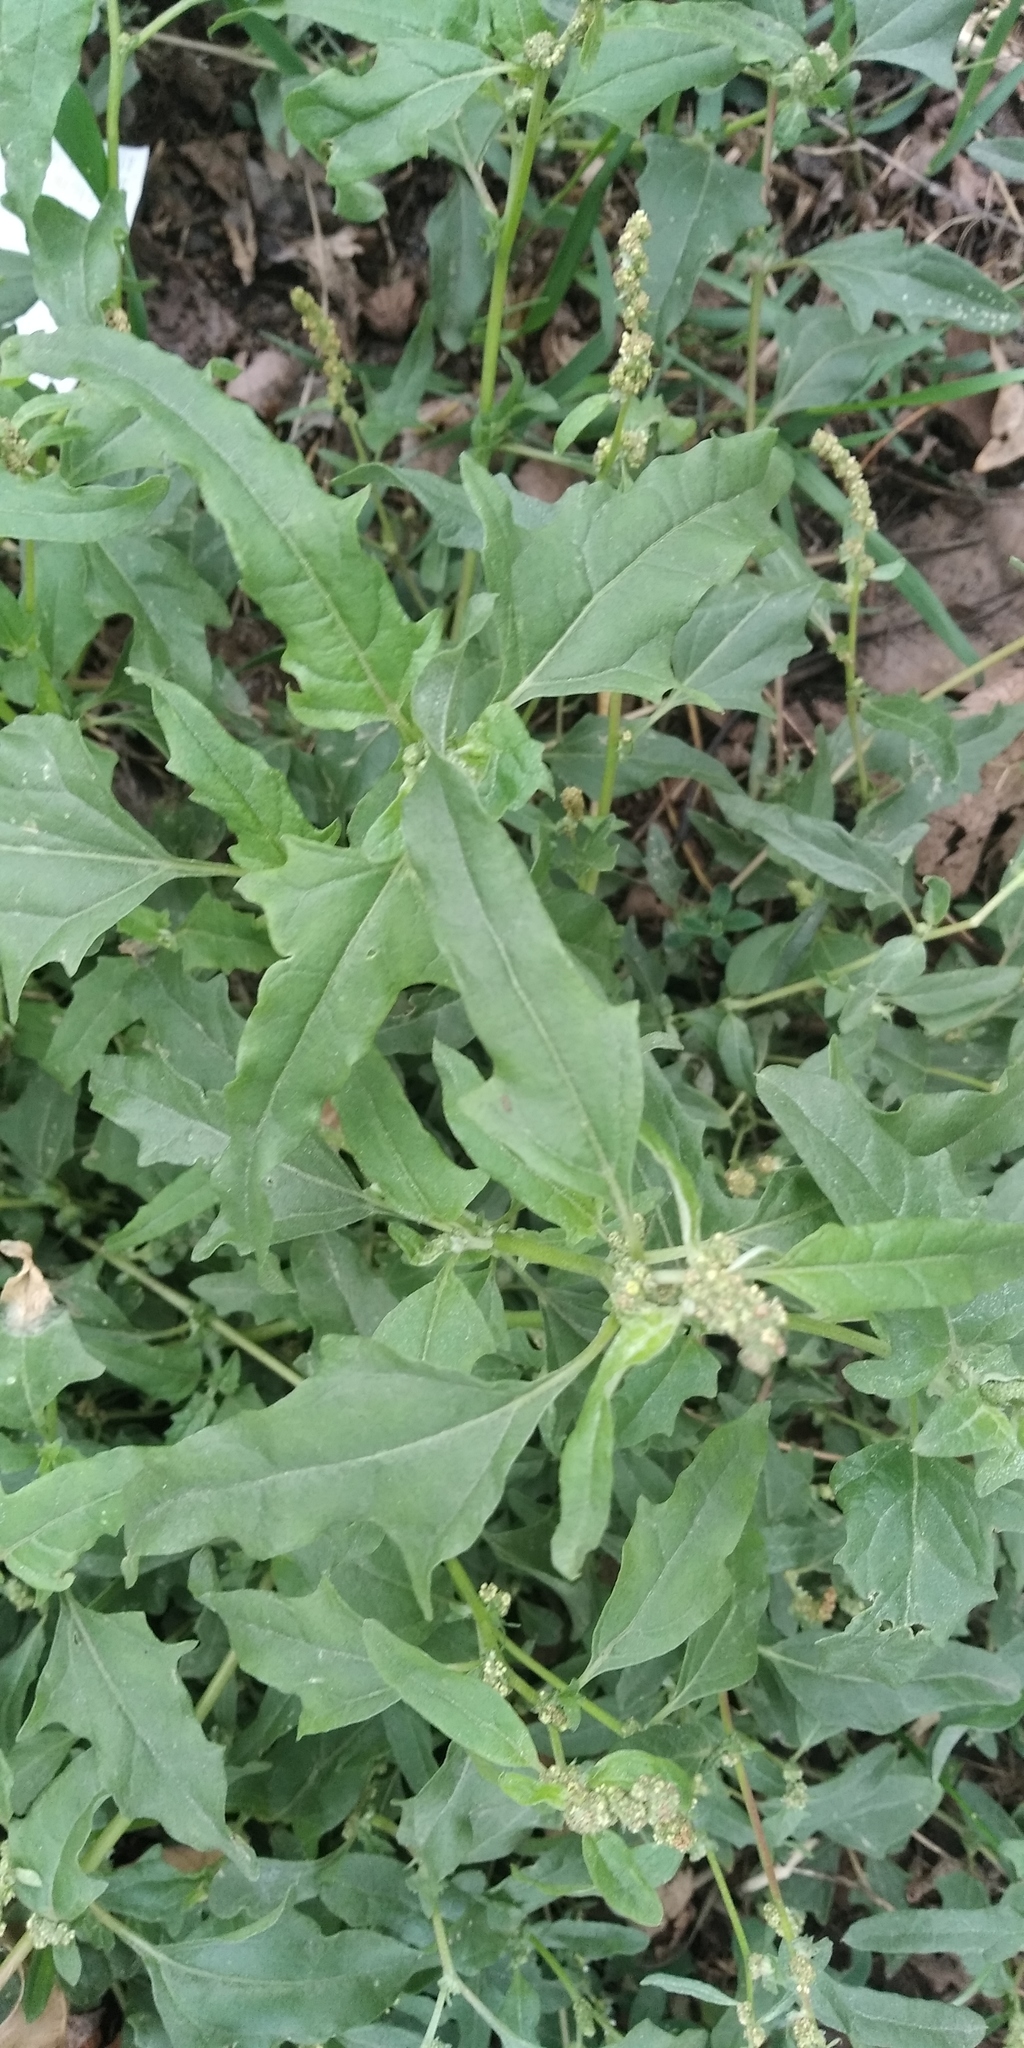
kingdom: Plantae
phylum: Tracheophyta
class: Magnoliopsida
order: Caryophyllales
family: Amaranthaceae
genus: Atriplex
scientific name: Atriplex tatarica
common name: Tatarian orache
